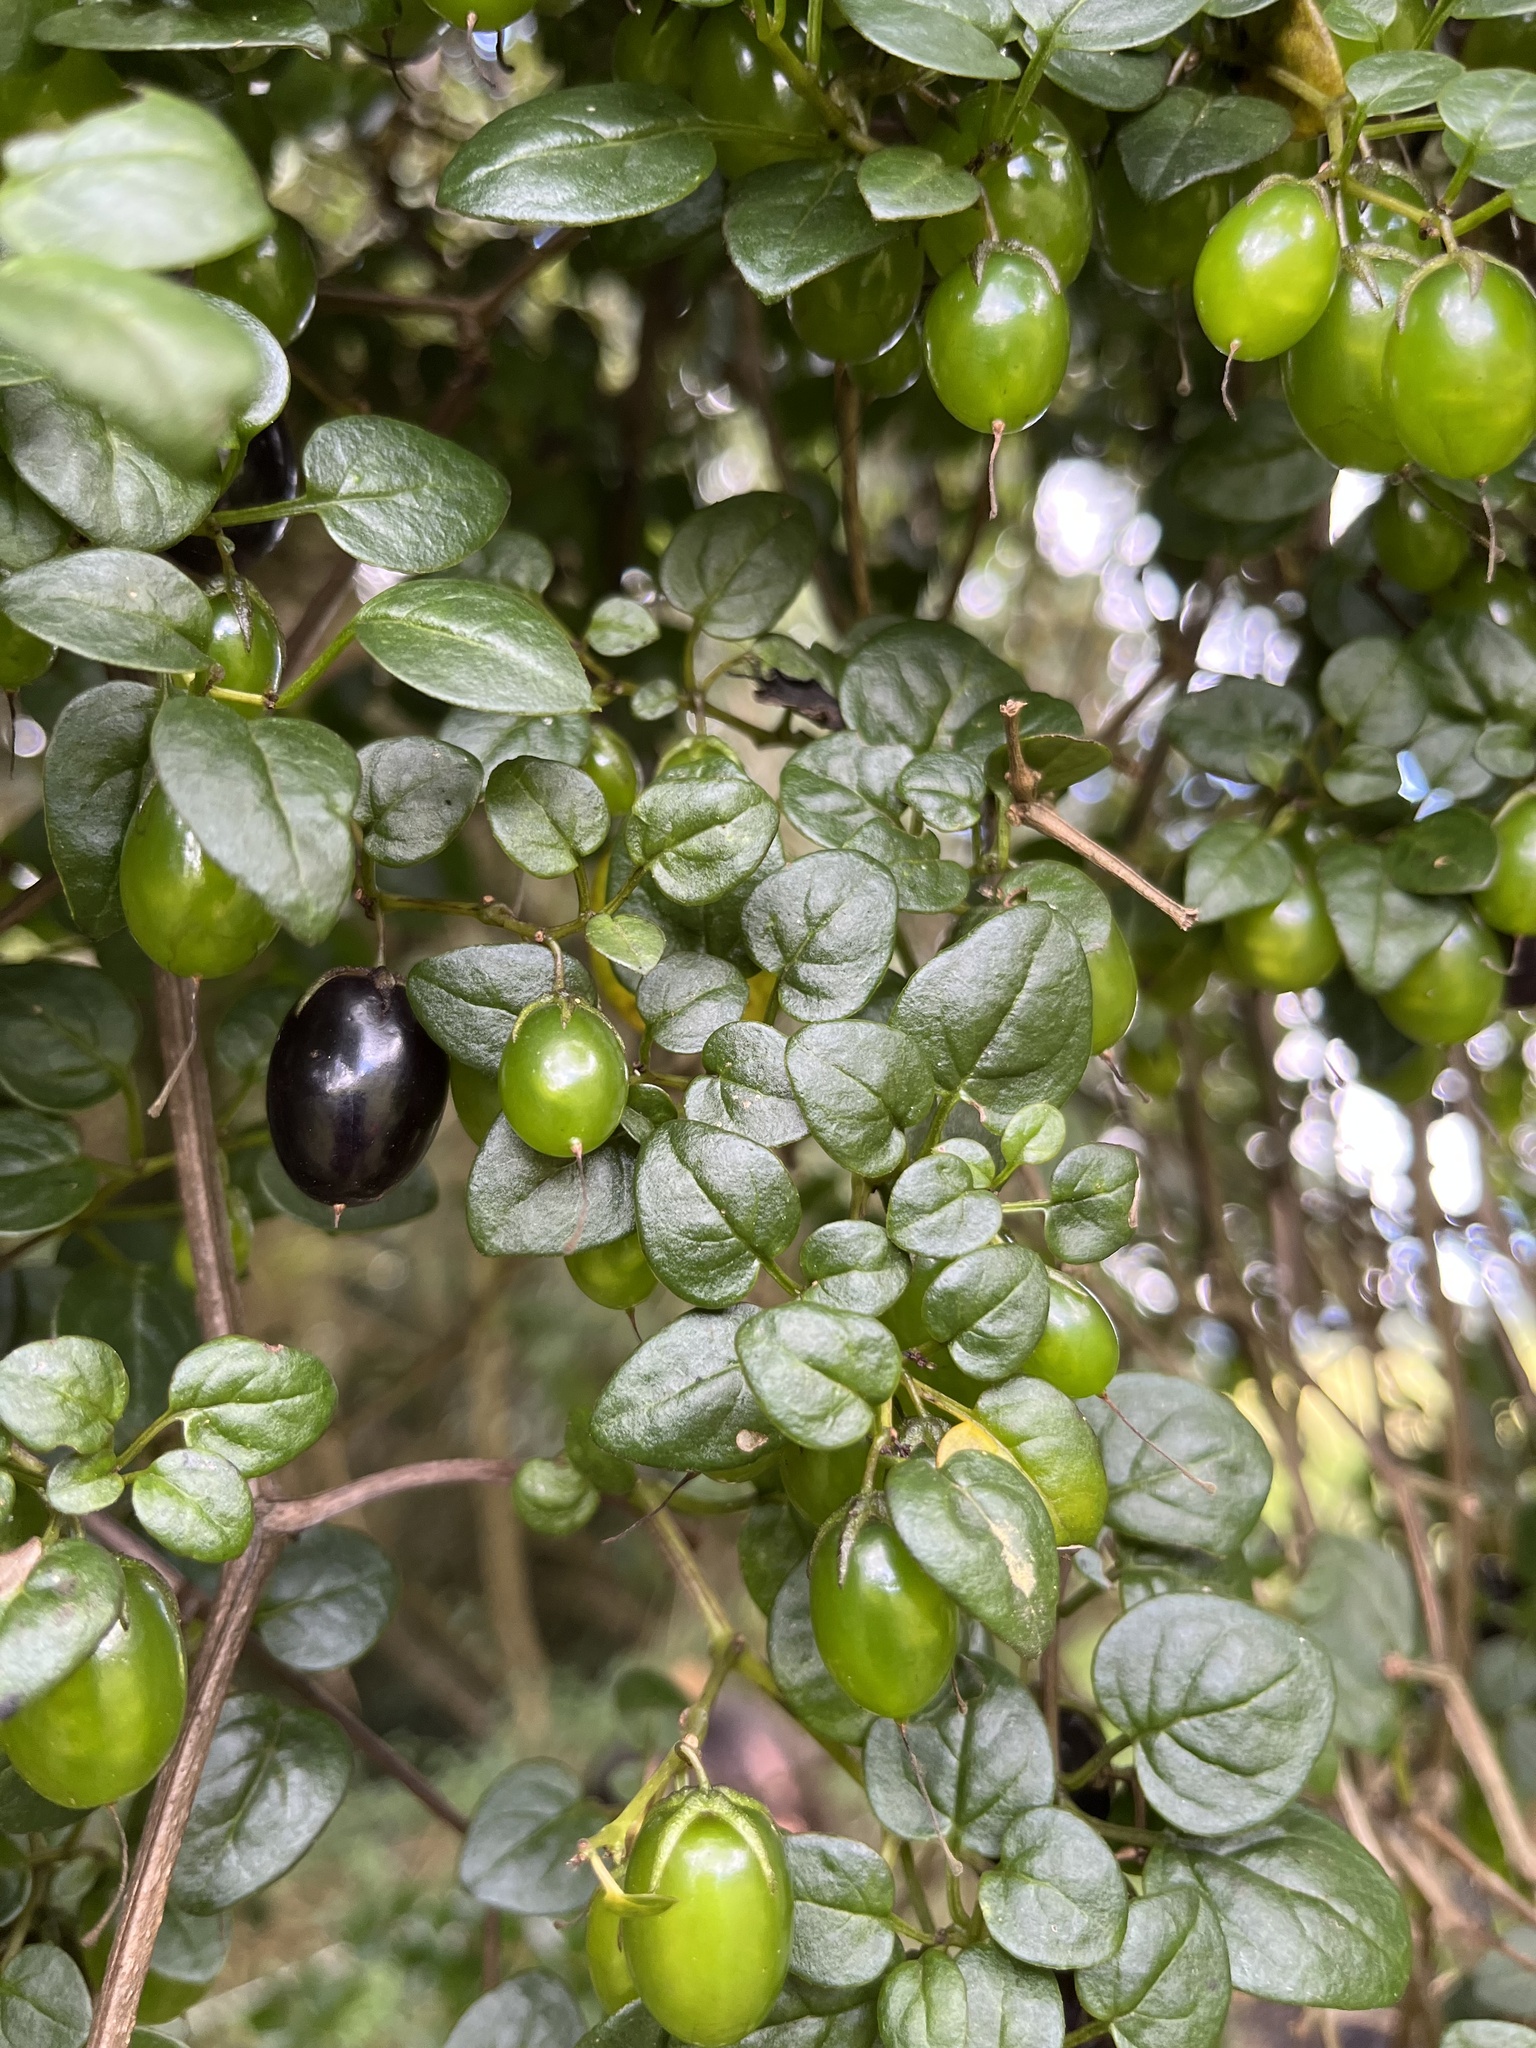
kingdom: Plantae
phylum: Tracheophyta
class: Magnoliopsida
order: Solanales
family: Solanaceae
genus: Salpichroa
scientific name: Salpichroa tristis
